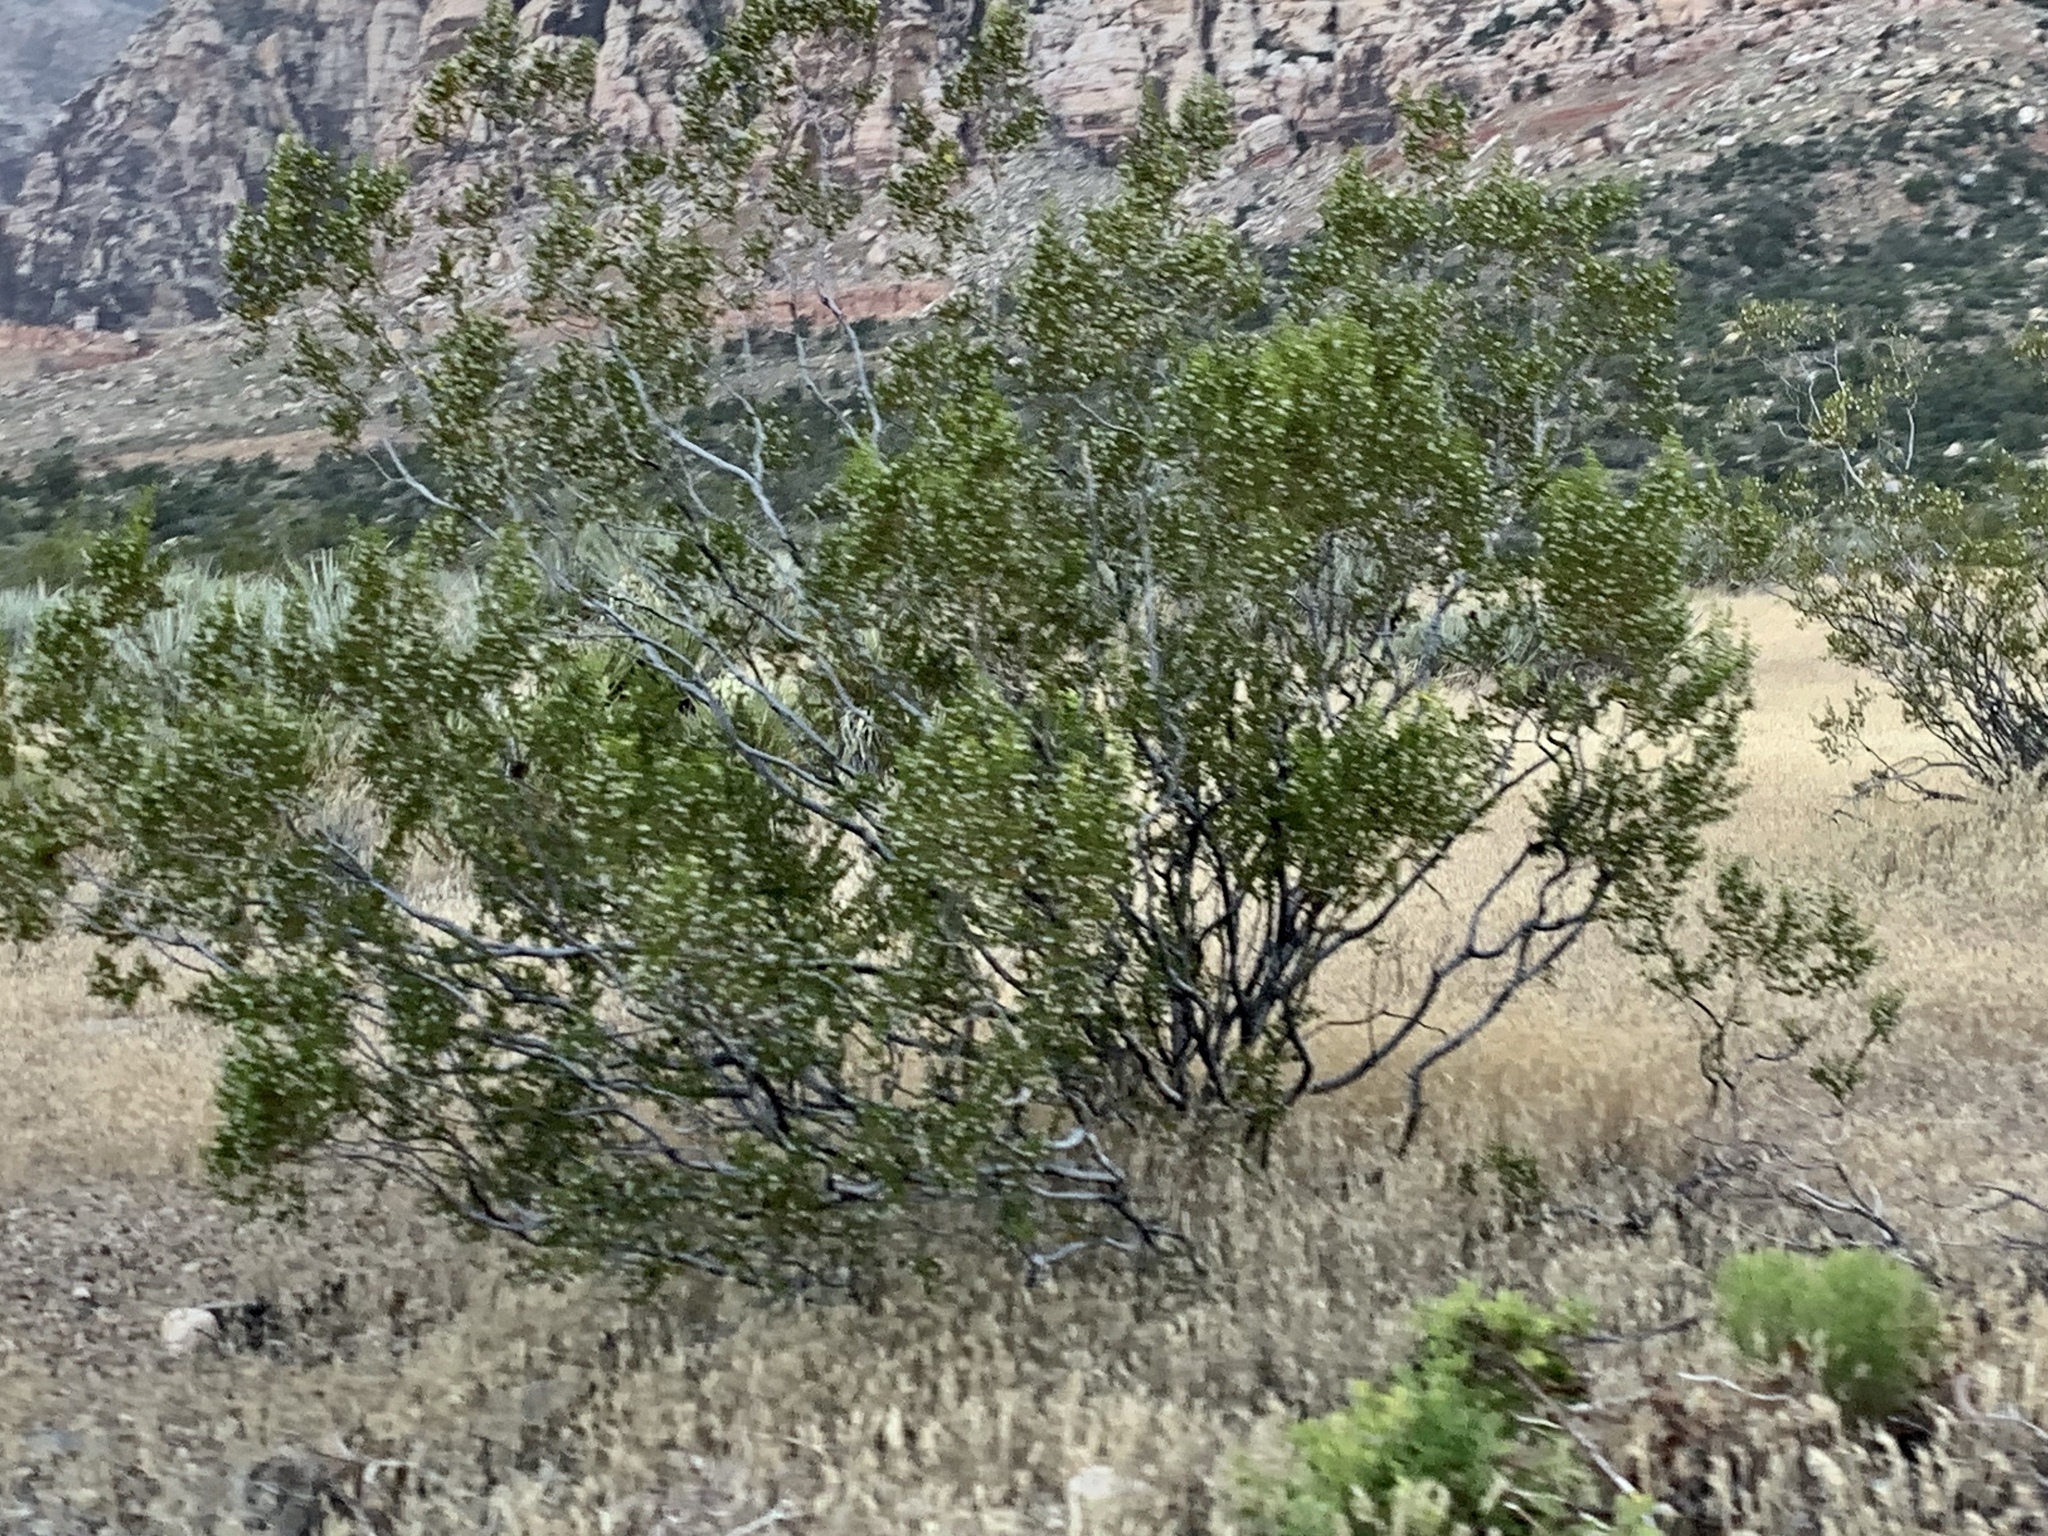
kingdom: Plantae
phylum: Tracheophyta
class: Magnoliopsida
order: Zygophyllales
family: Zygophyllaceae
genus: Larrea
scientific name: Larrea tridentata
